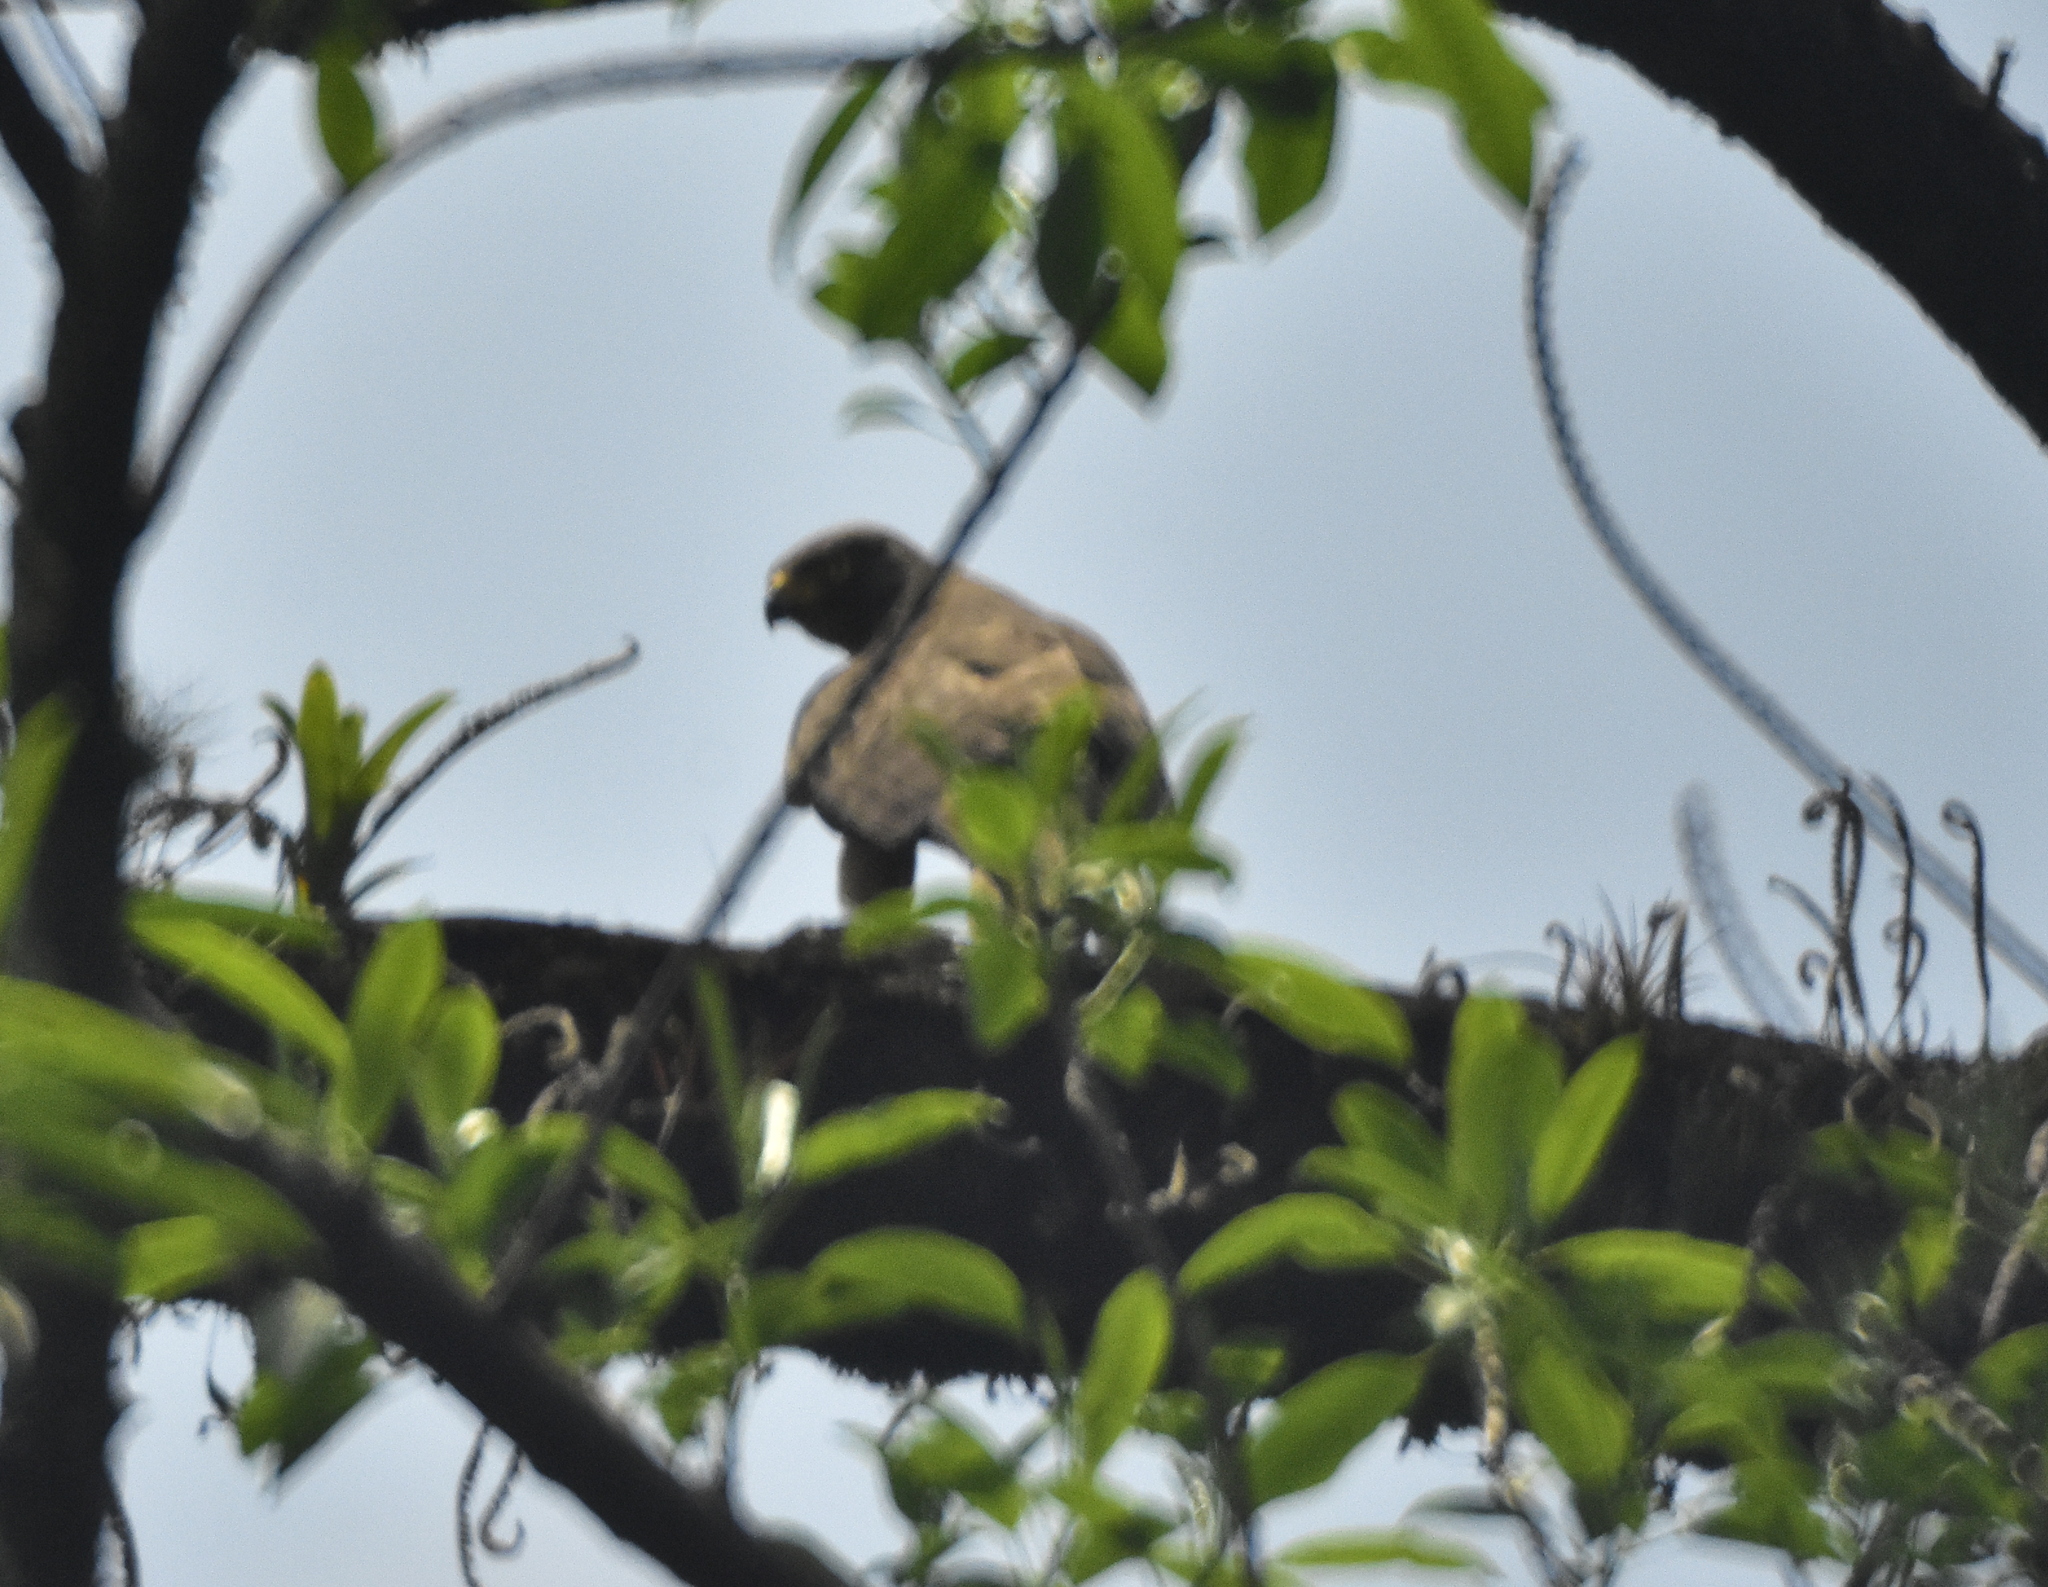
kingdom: Animalia
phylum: Chordata
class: Aves
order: Accipitriformes
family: Accipitridae
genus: Rupornis
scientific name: Rupornis magnirostris
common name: Roadside hawk
